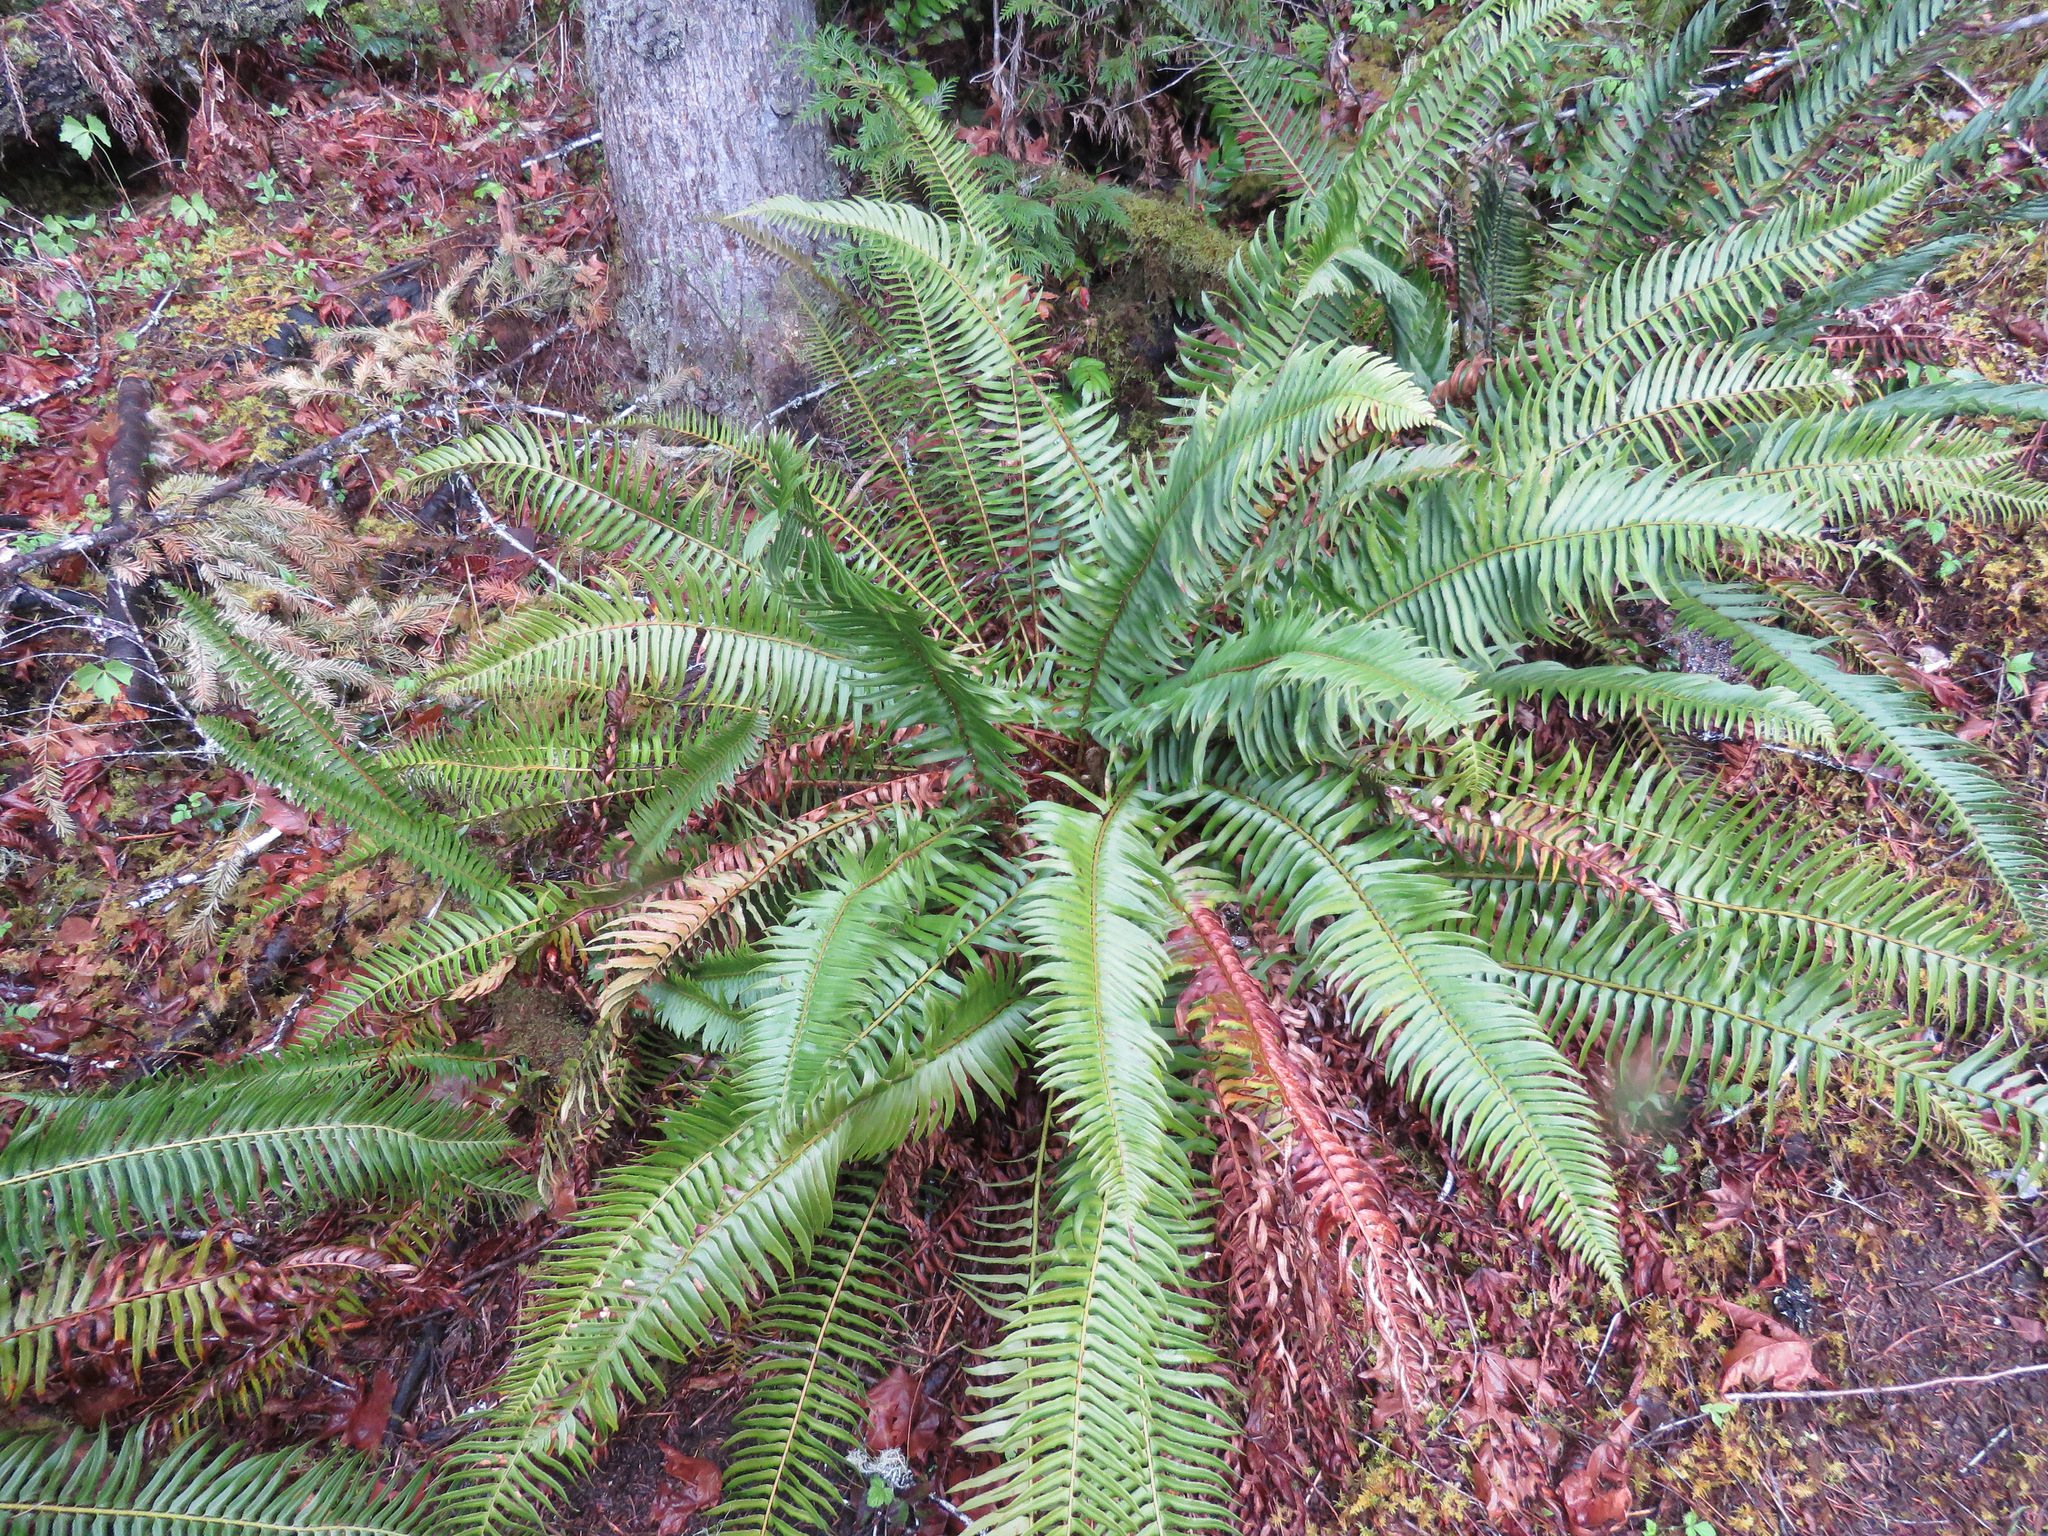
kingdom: Plantae
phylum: Tracheophyta
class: Polypodiopsida
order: Polypodiales
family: Dryopteridaceae
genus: Polystichum
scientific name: Polystichum munitum
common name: Western sword-fern
